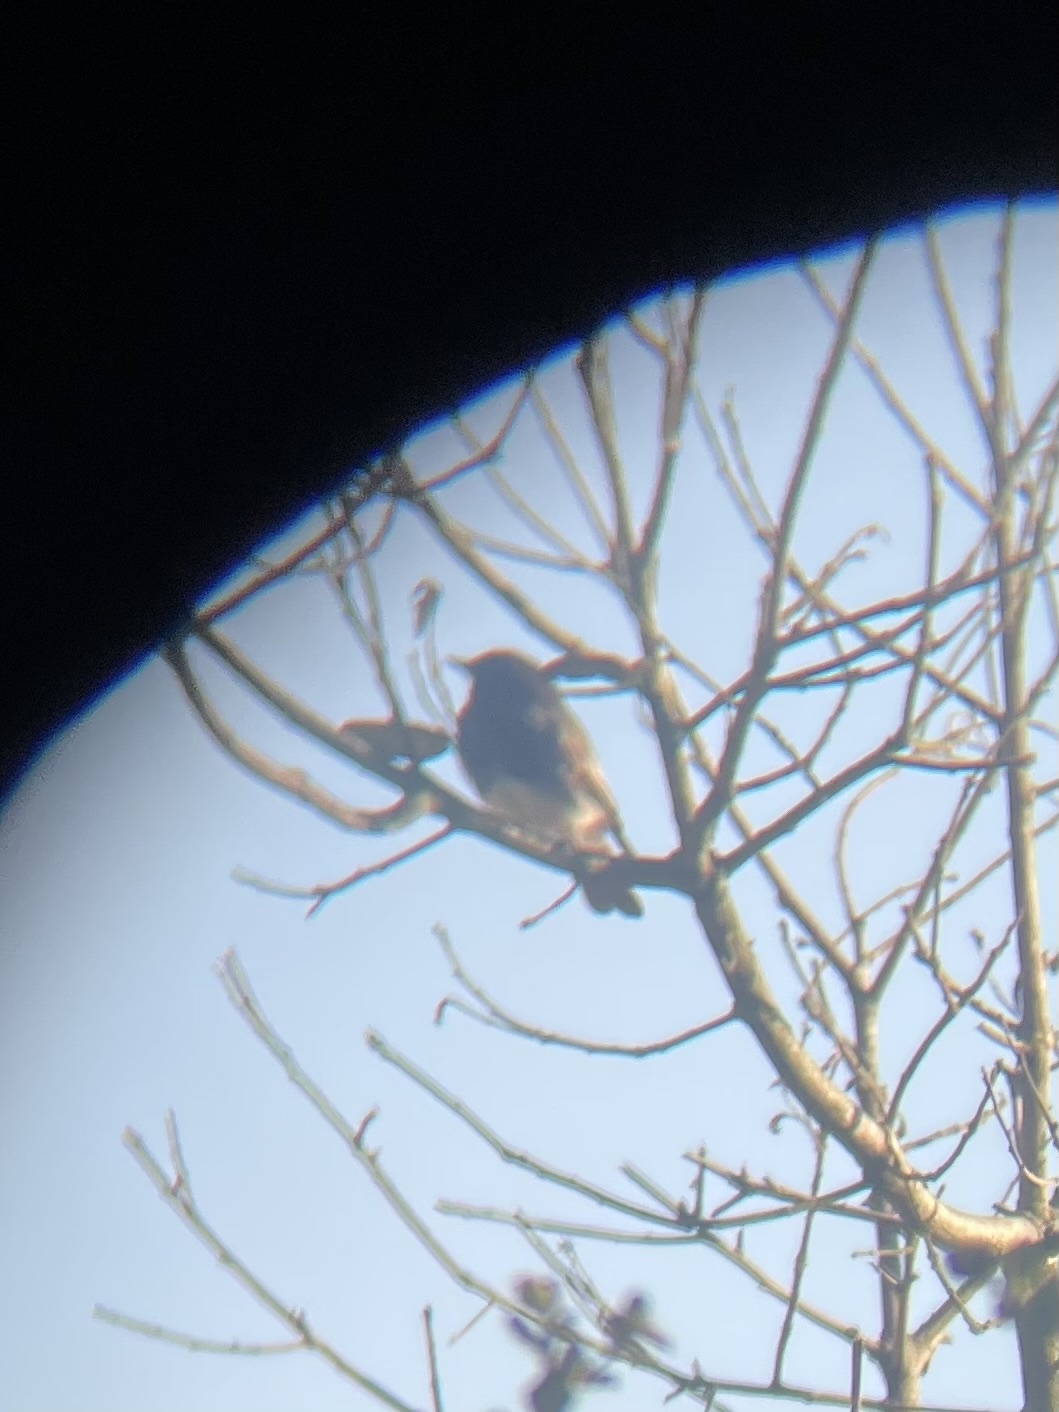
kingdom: Animalia
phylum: Chordata
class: Aves
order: Passeriformes
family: Tyrannidae
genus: Sayornis
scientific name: Sayornis nigricans
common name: Black phoebe
